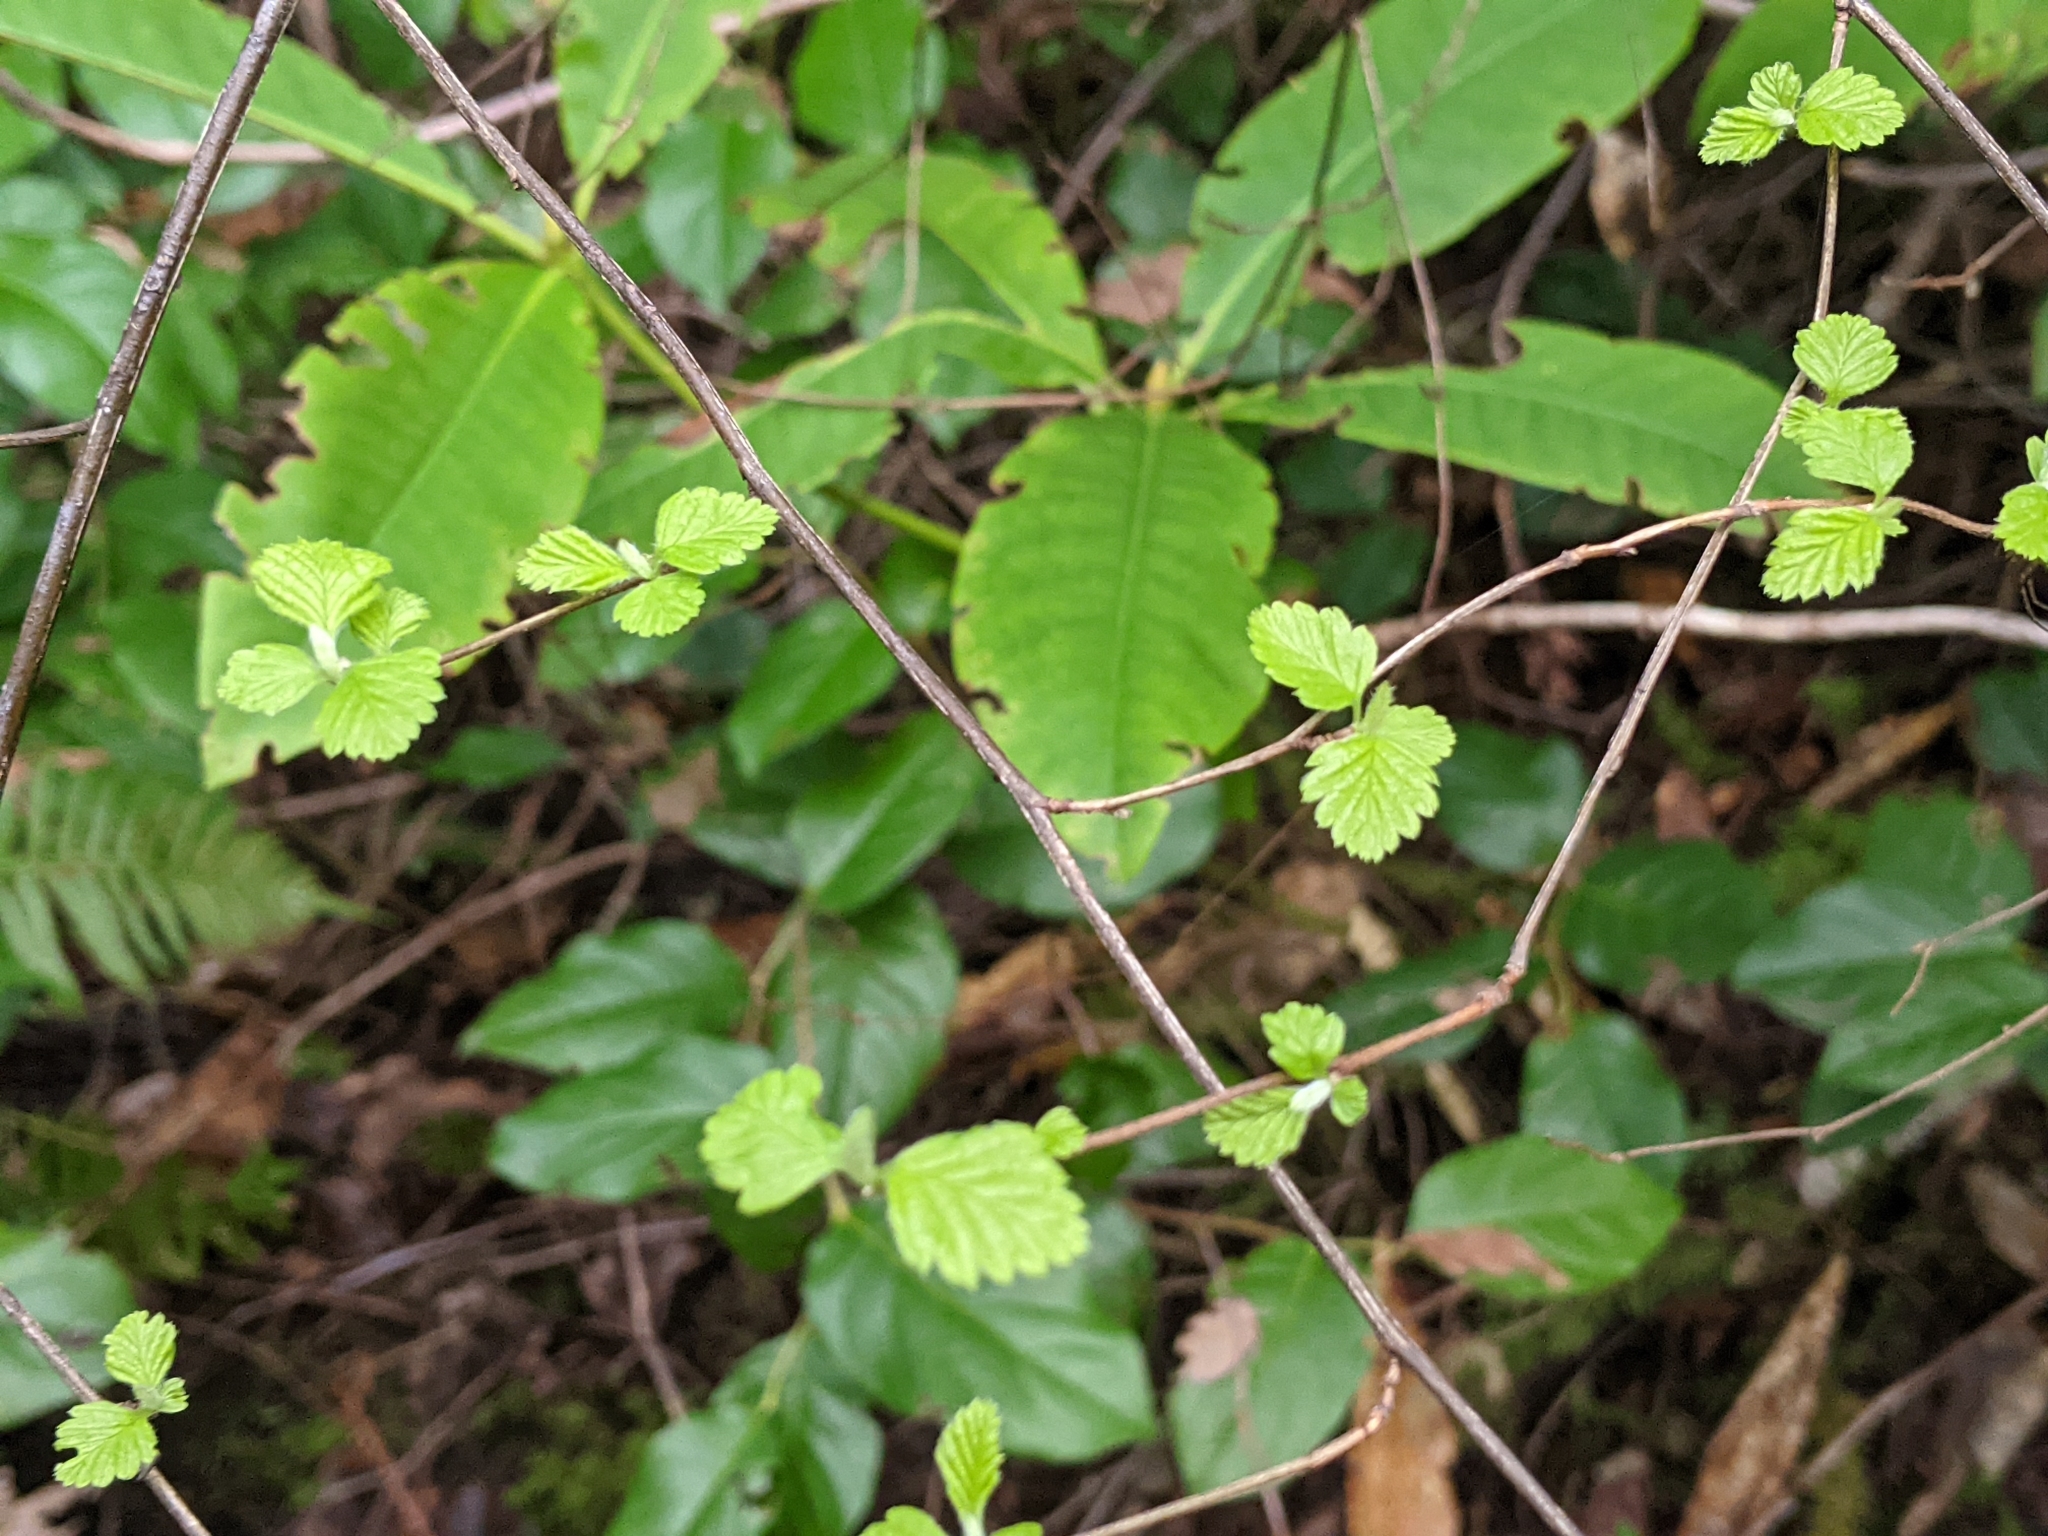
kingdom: Plantae
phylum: Tracheophyta
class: Magnoliopsida
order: Rosales
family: Rosaceae
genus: Holodiscus
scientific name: Holodiscus discolor
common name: Oceanspray
